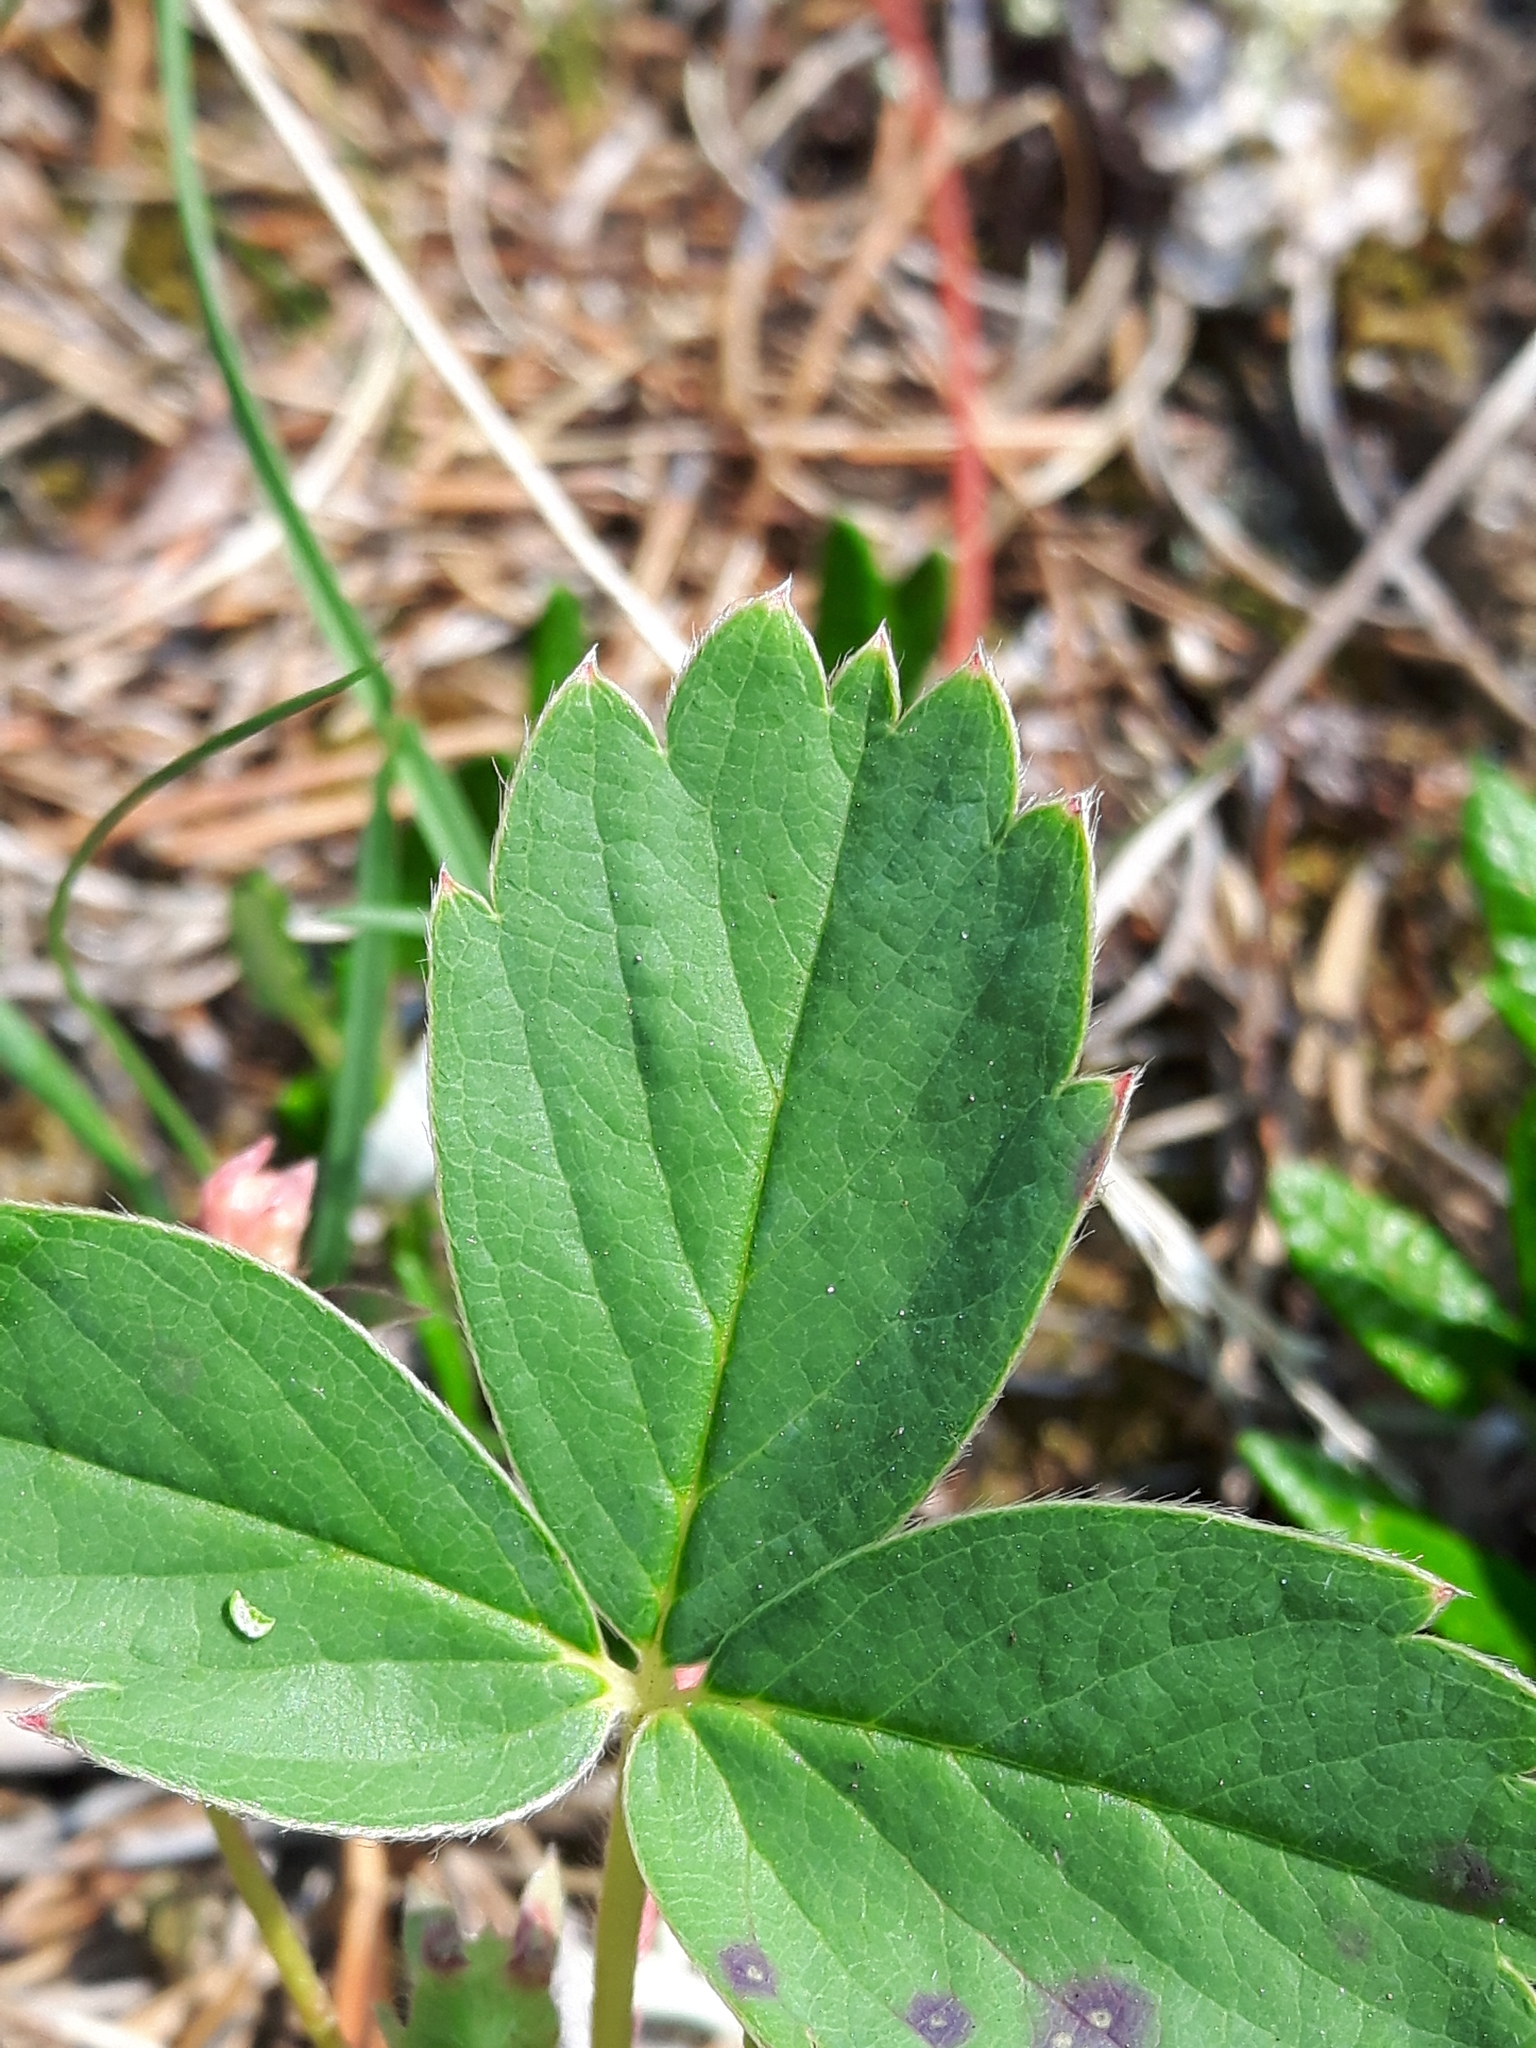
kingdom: Plantae
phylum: Tracheophyta
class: Magnoliopsida
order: Rosales
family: Rosaceae
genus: Fragaria
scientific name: Fragaria virginiana
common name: Thickleaved wild strawberry
